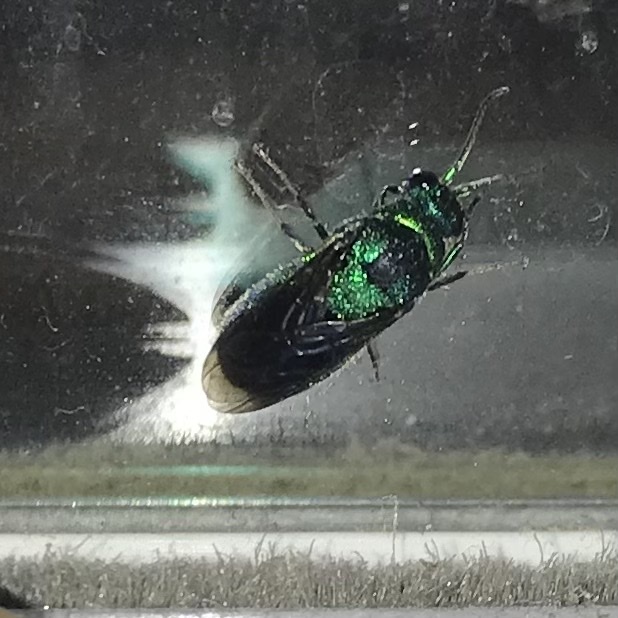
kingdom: Animalia
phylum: Arthropoda
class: Insecta
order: Hymenoptera
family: Chrysididae
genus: Chrysis
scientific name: Chrysis angolensis
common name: Cuckoo wasp
